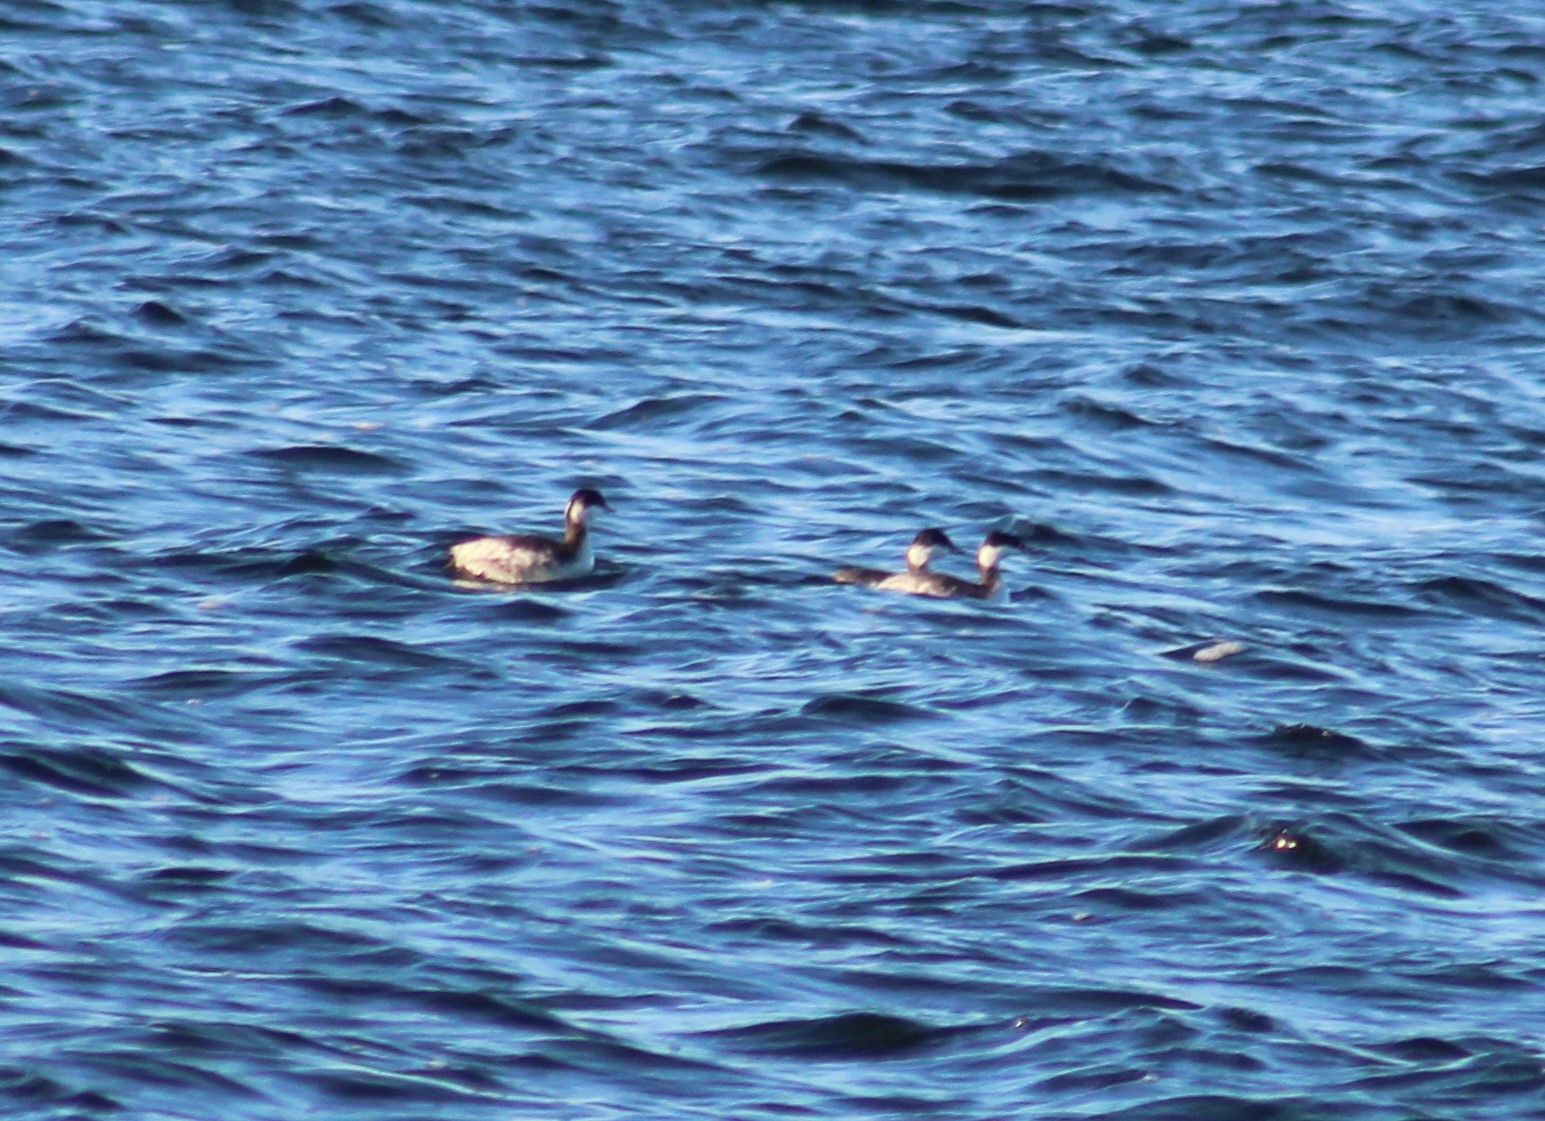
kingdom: Animalia
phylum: Chordata
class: Aves
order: Podicipediformes
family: Podicipedidae
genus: Podiceps
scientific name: Podiceps auritus
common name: Horned grebe
